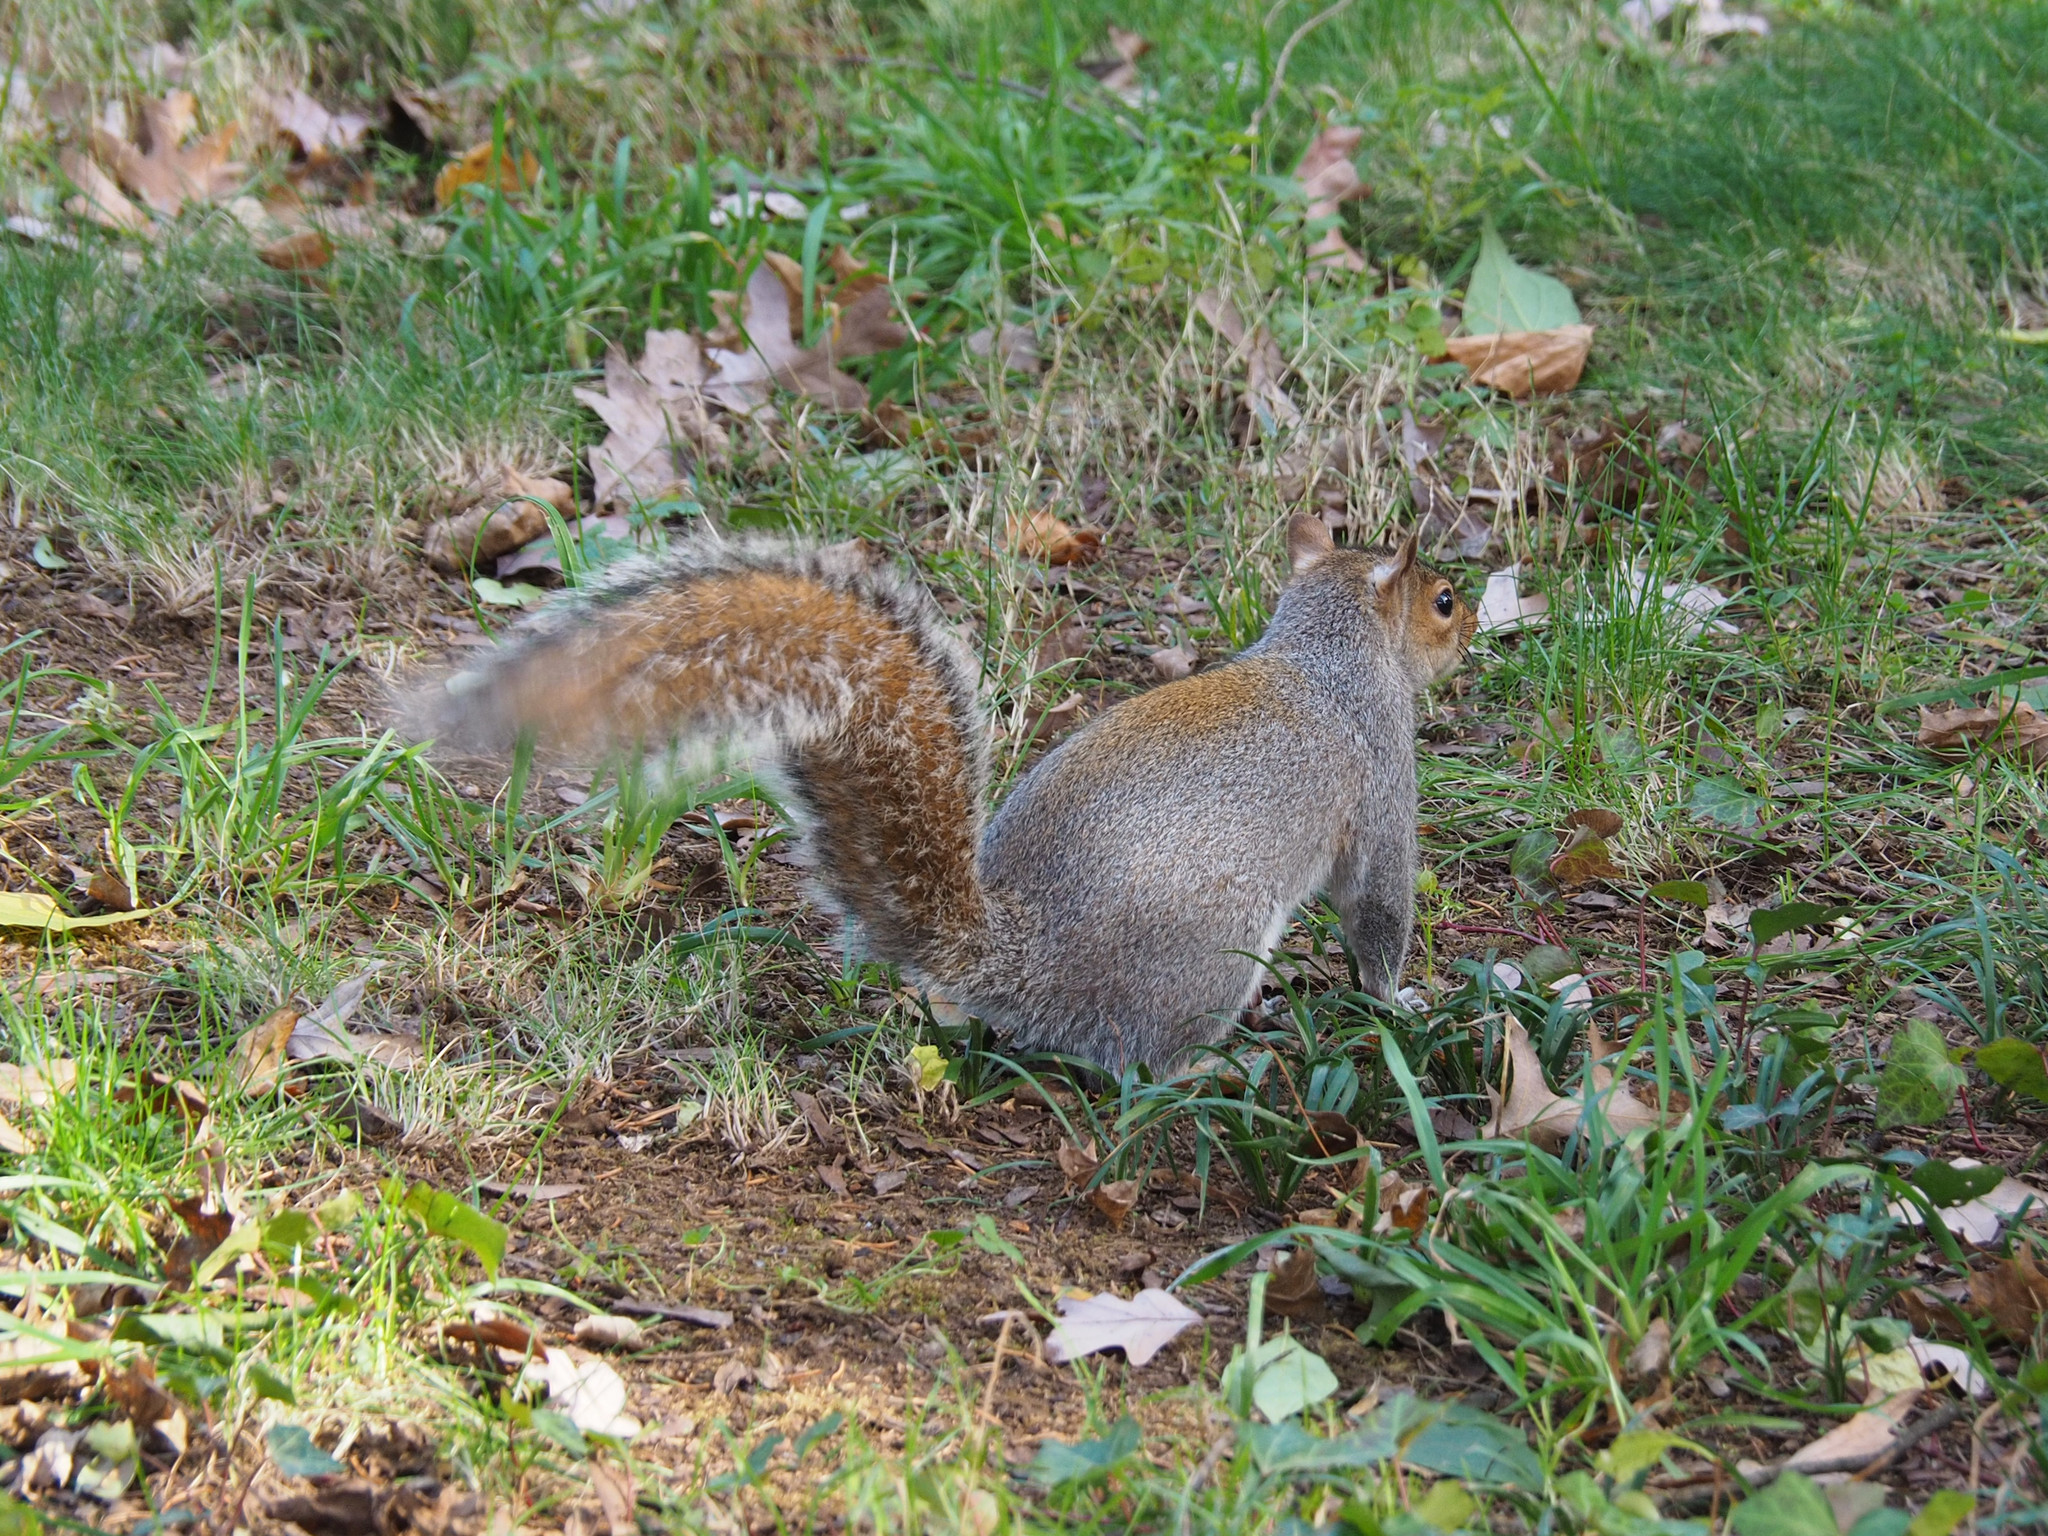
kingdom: Animalia
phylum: Chordata
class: Mammalia
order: Rodentia
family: Sciuridae
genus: Sciurus
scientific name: Sciurus carolinensis
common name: Eastern gray squirrel
